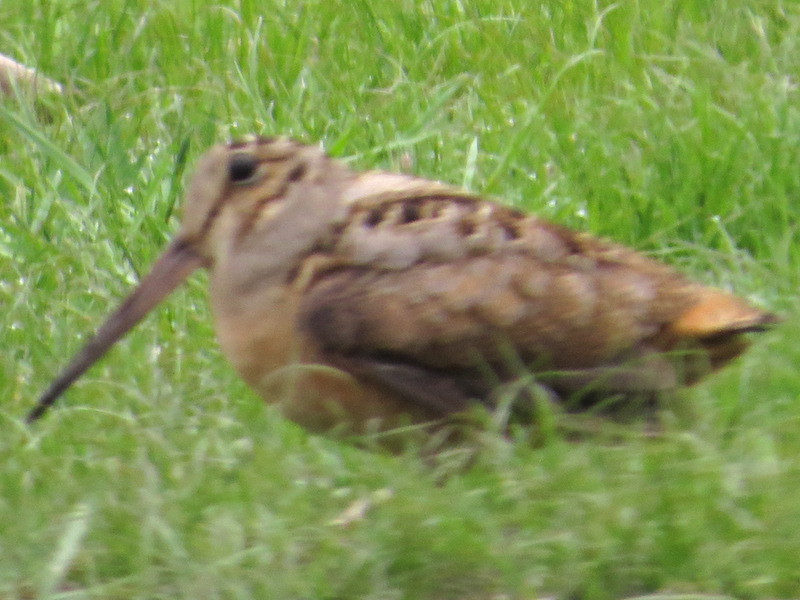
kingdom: Animalia
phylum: Chordata
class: Aves
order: Charadriiformes
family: Scolopacidae
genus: Scolopax
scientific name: Scolopax minor
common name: American woodcock
